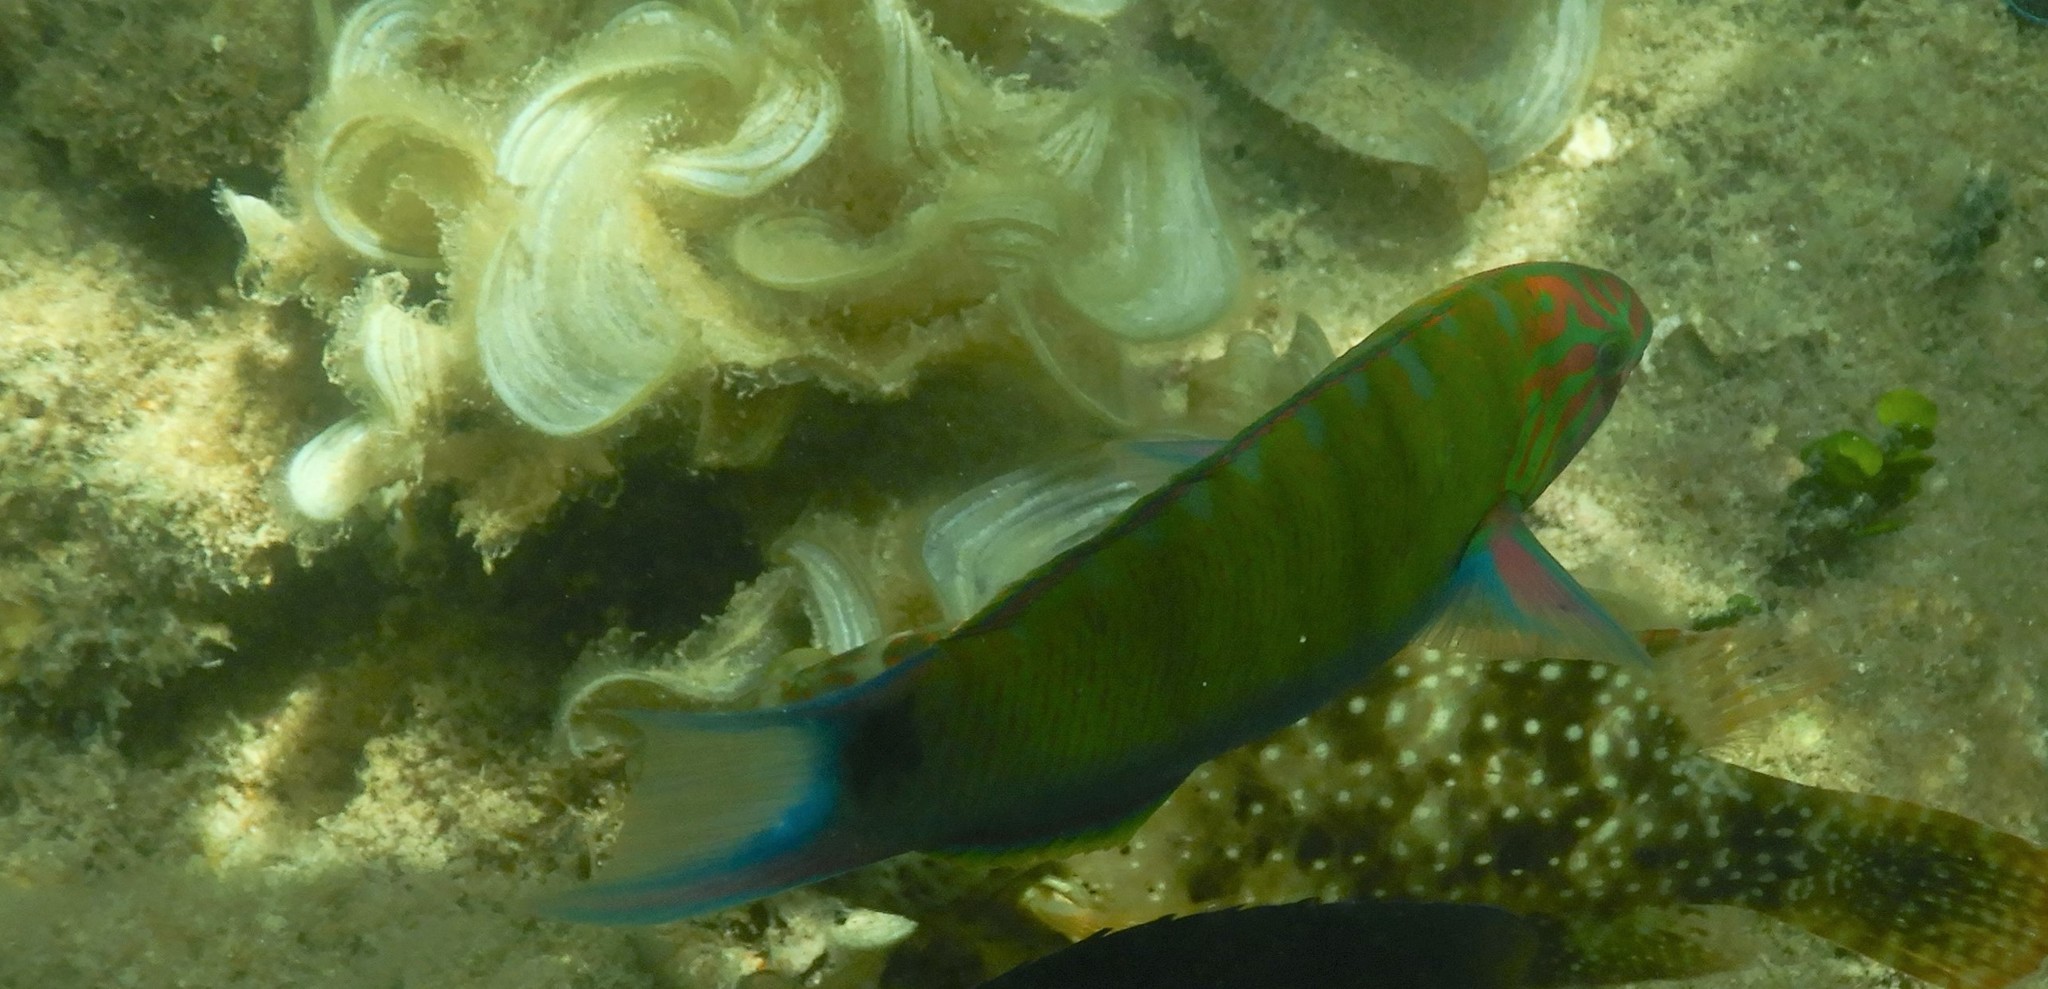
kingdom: Animalia
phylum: Chordata
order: Perciformes
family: Labridae
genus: Thalassoma
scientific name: Thalassoma lunare
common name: Blue wrasse
